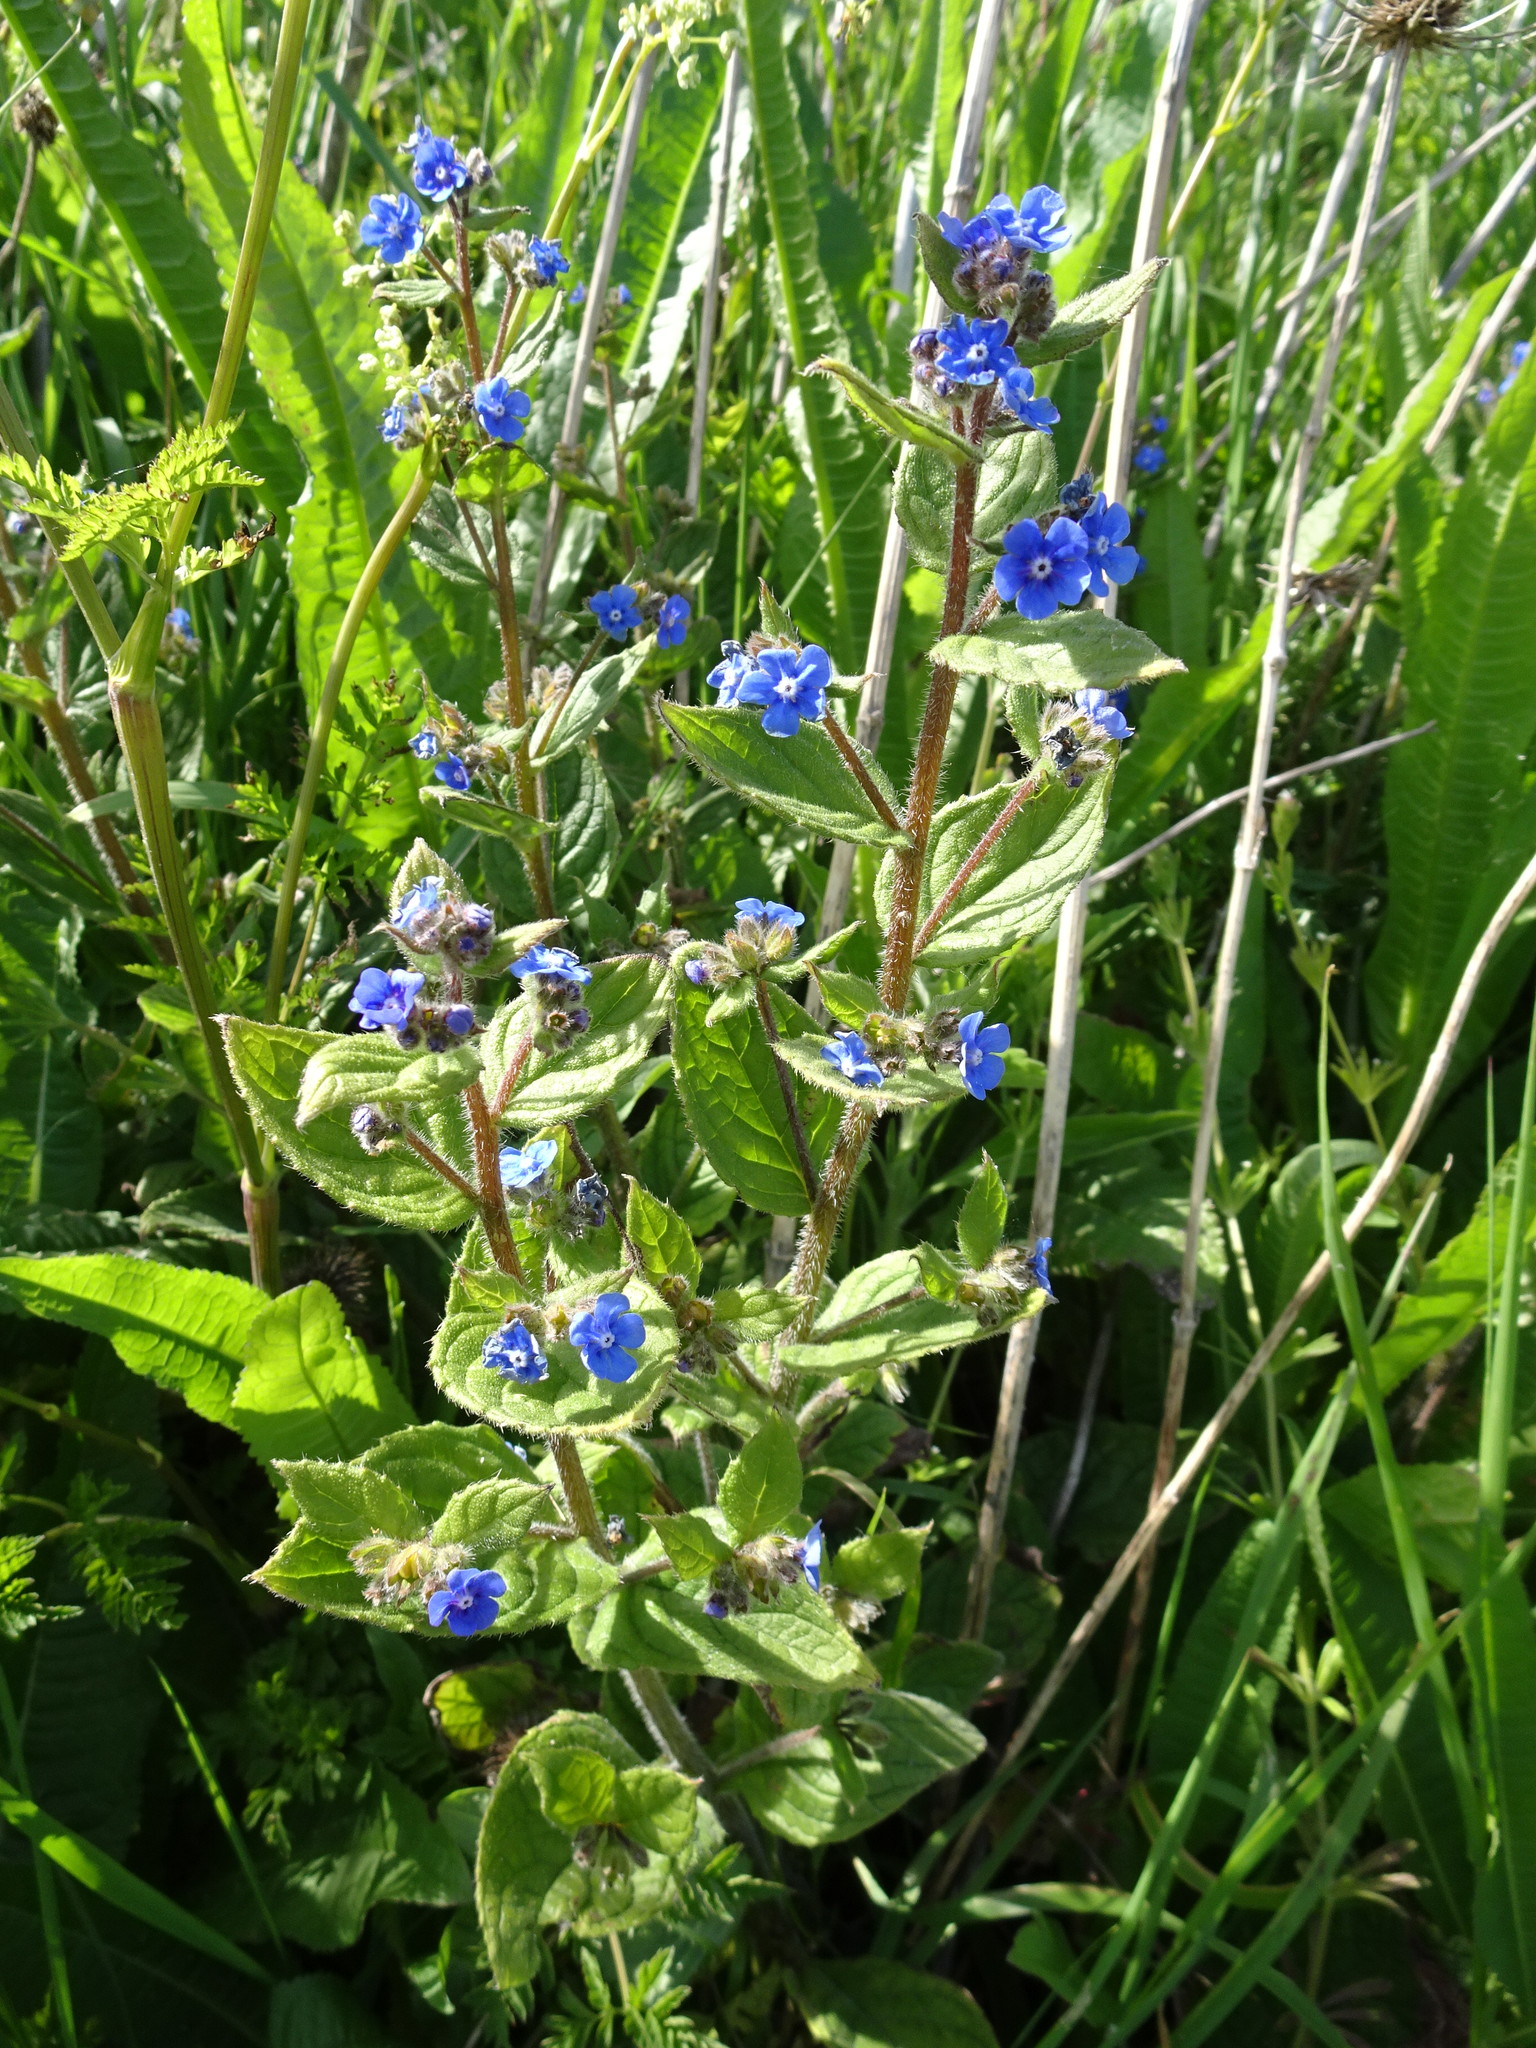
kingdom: Plantae
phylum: Tracheophyta
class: Magnoliopsida
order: Boraginales
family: Boraginaceae
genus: Pentaglottis
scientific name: Pentaglottis sempervirens
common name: Green alkanet
